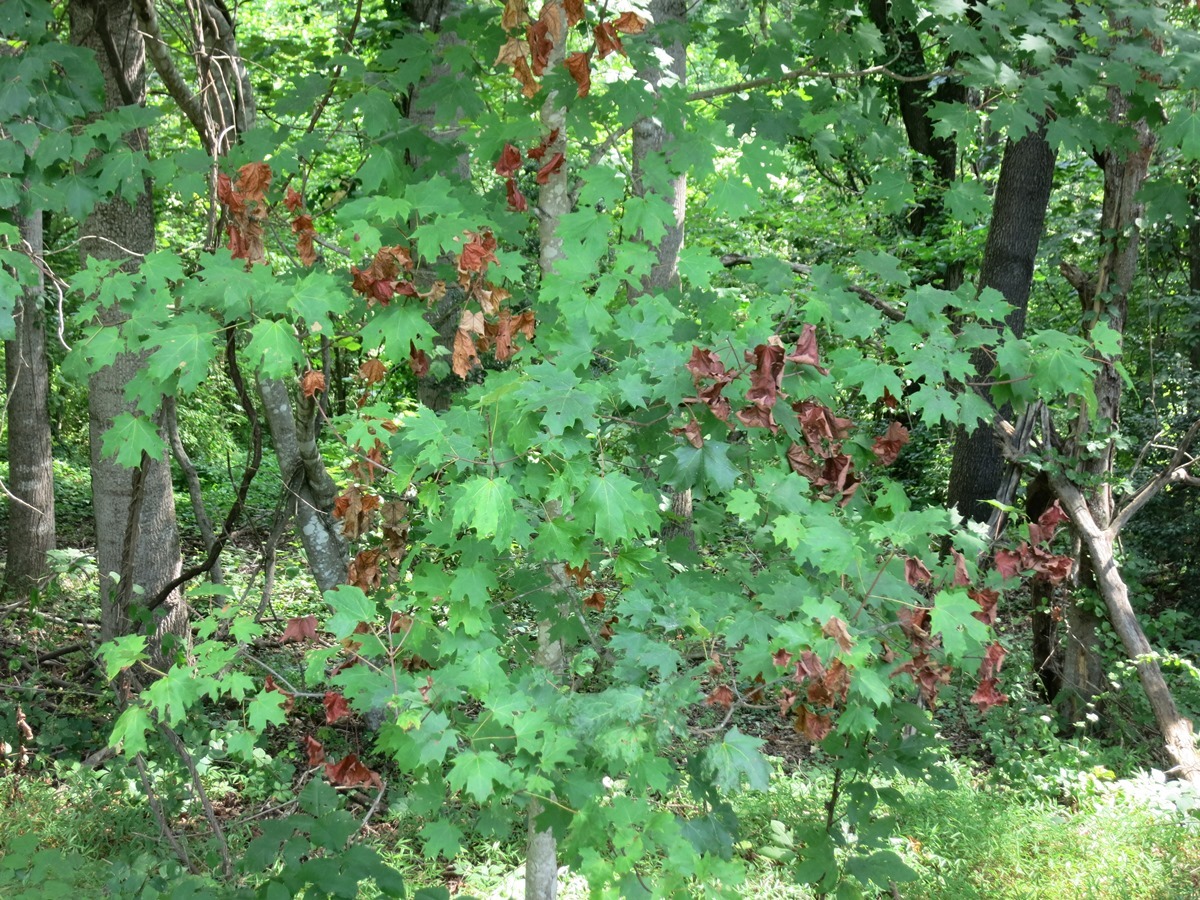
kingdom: Animalia
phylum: Arthropoda
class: Insecta
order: Hemiptera
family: Aphididae
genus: Neoprociphilus
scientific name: Neoprociphilus aceris
